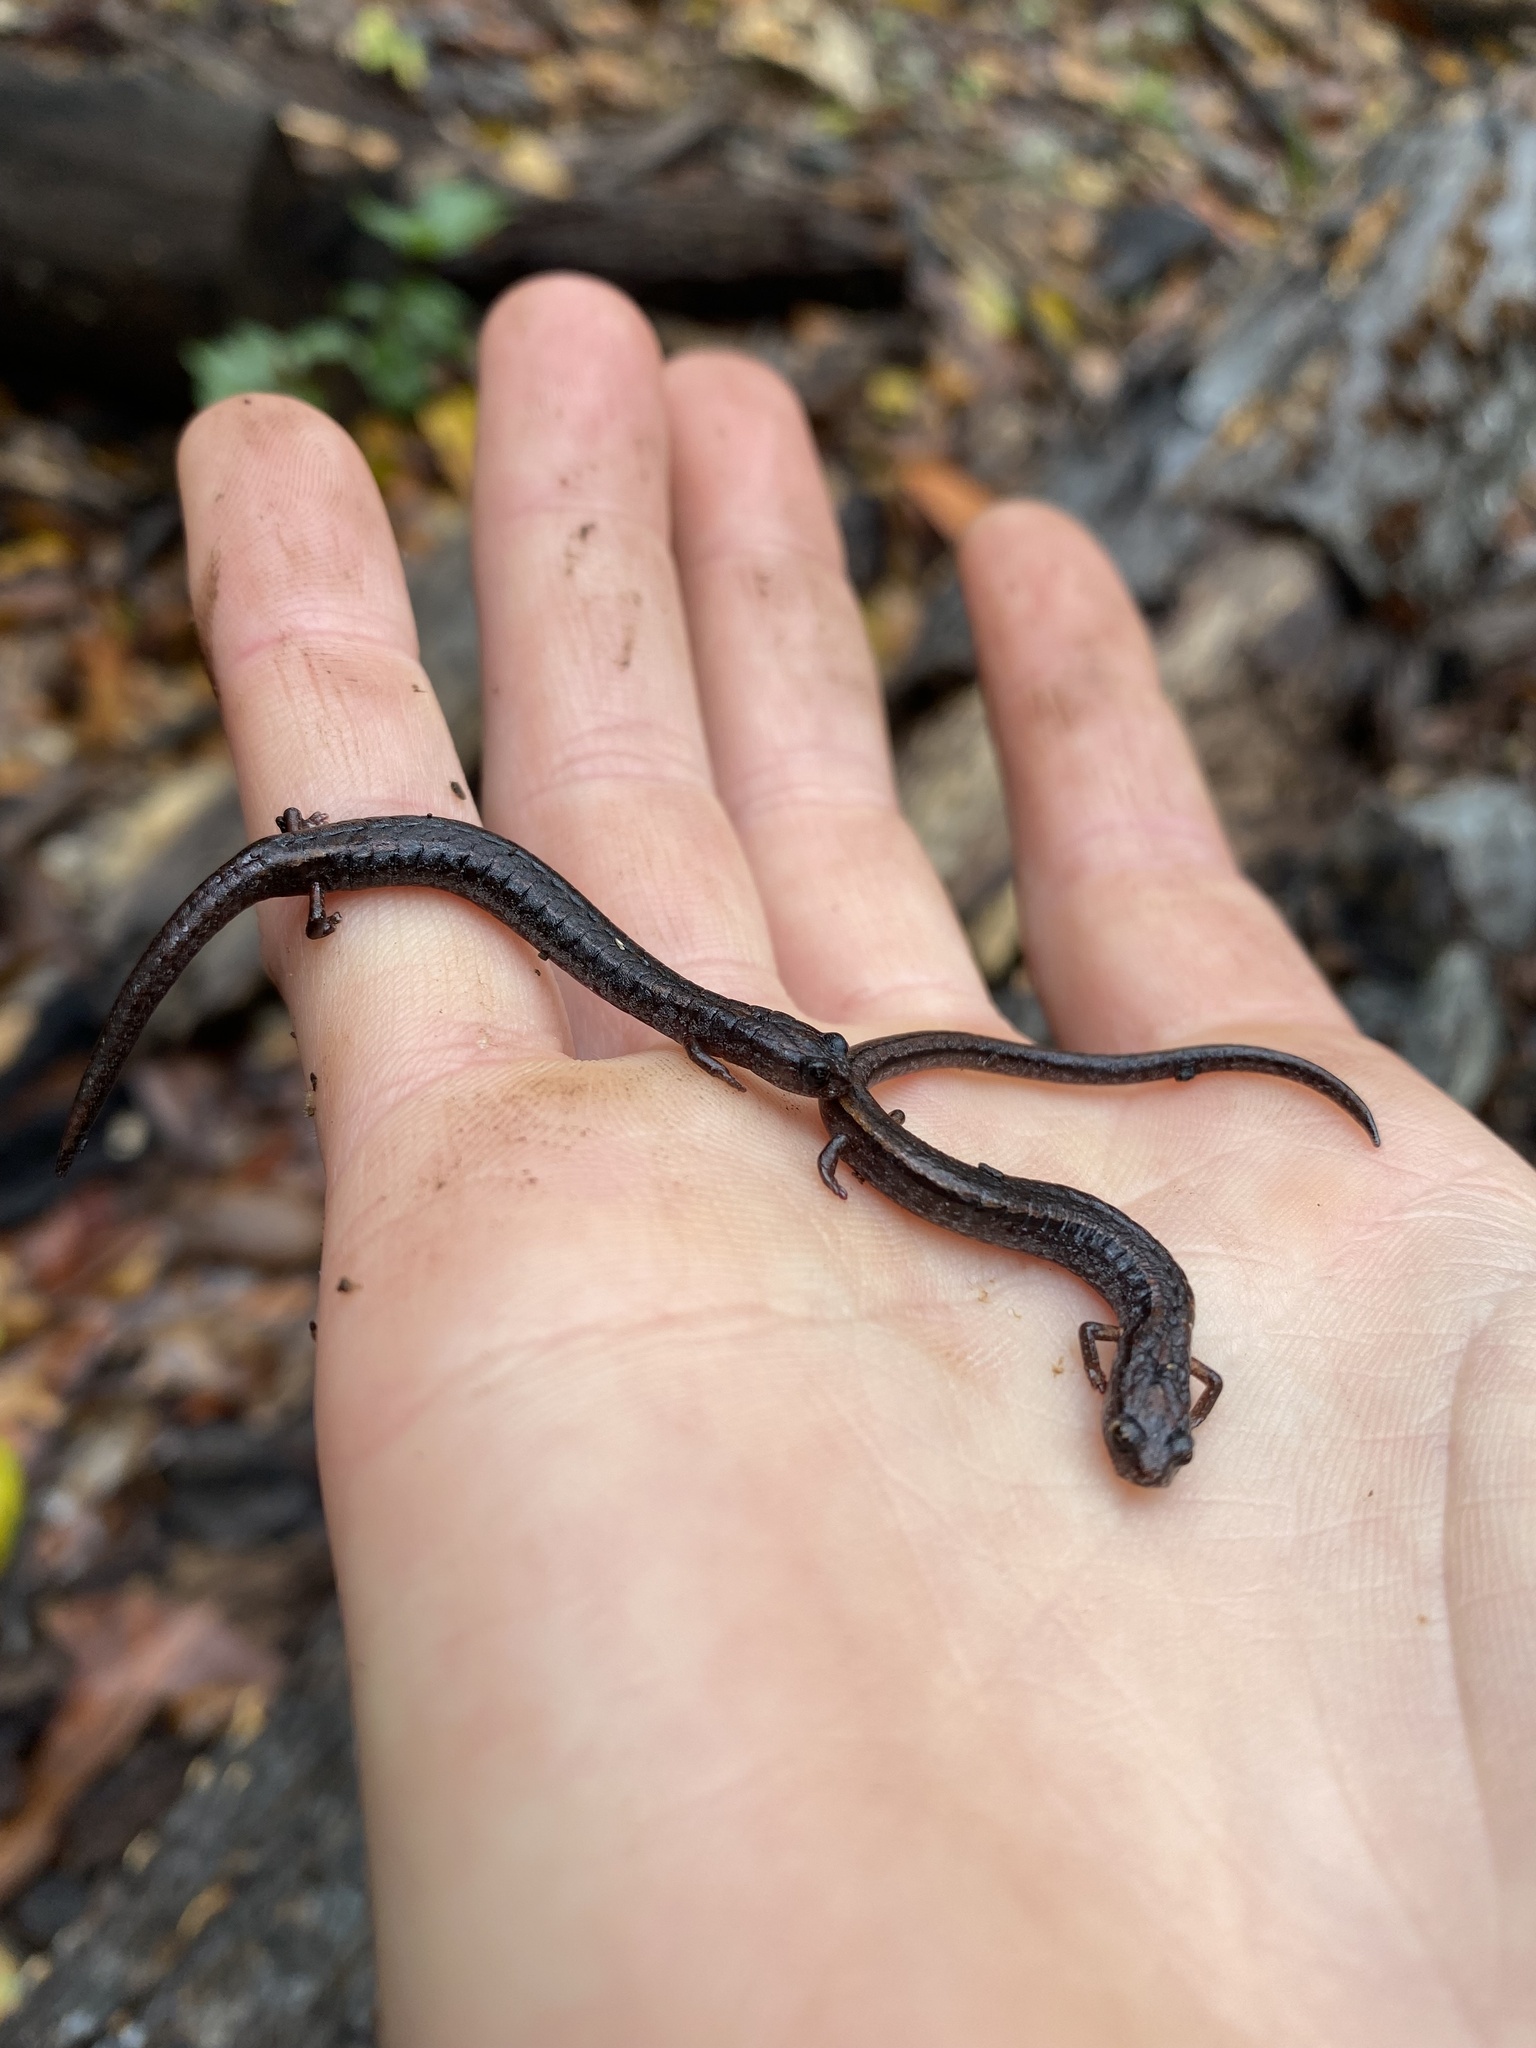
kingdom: Animalia
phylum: Chordata
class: Amphibia
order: Caudata
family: Plethodontidae
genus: Batrachoseps
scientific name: Batrachoseps attenuatus
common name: California slender salamander
